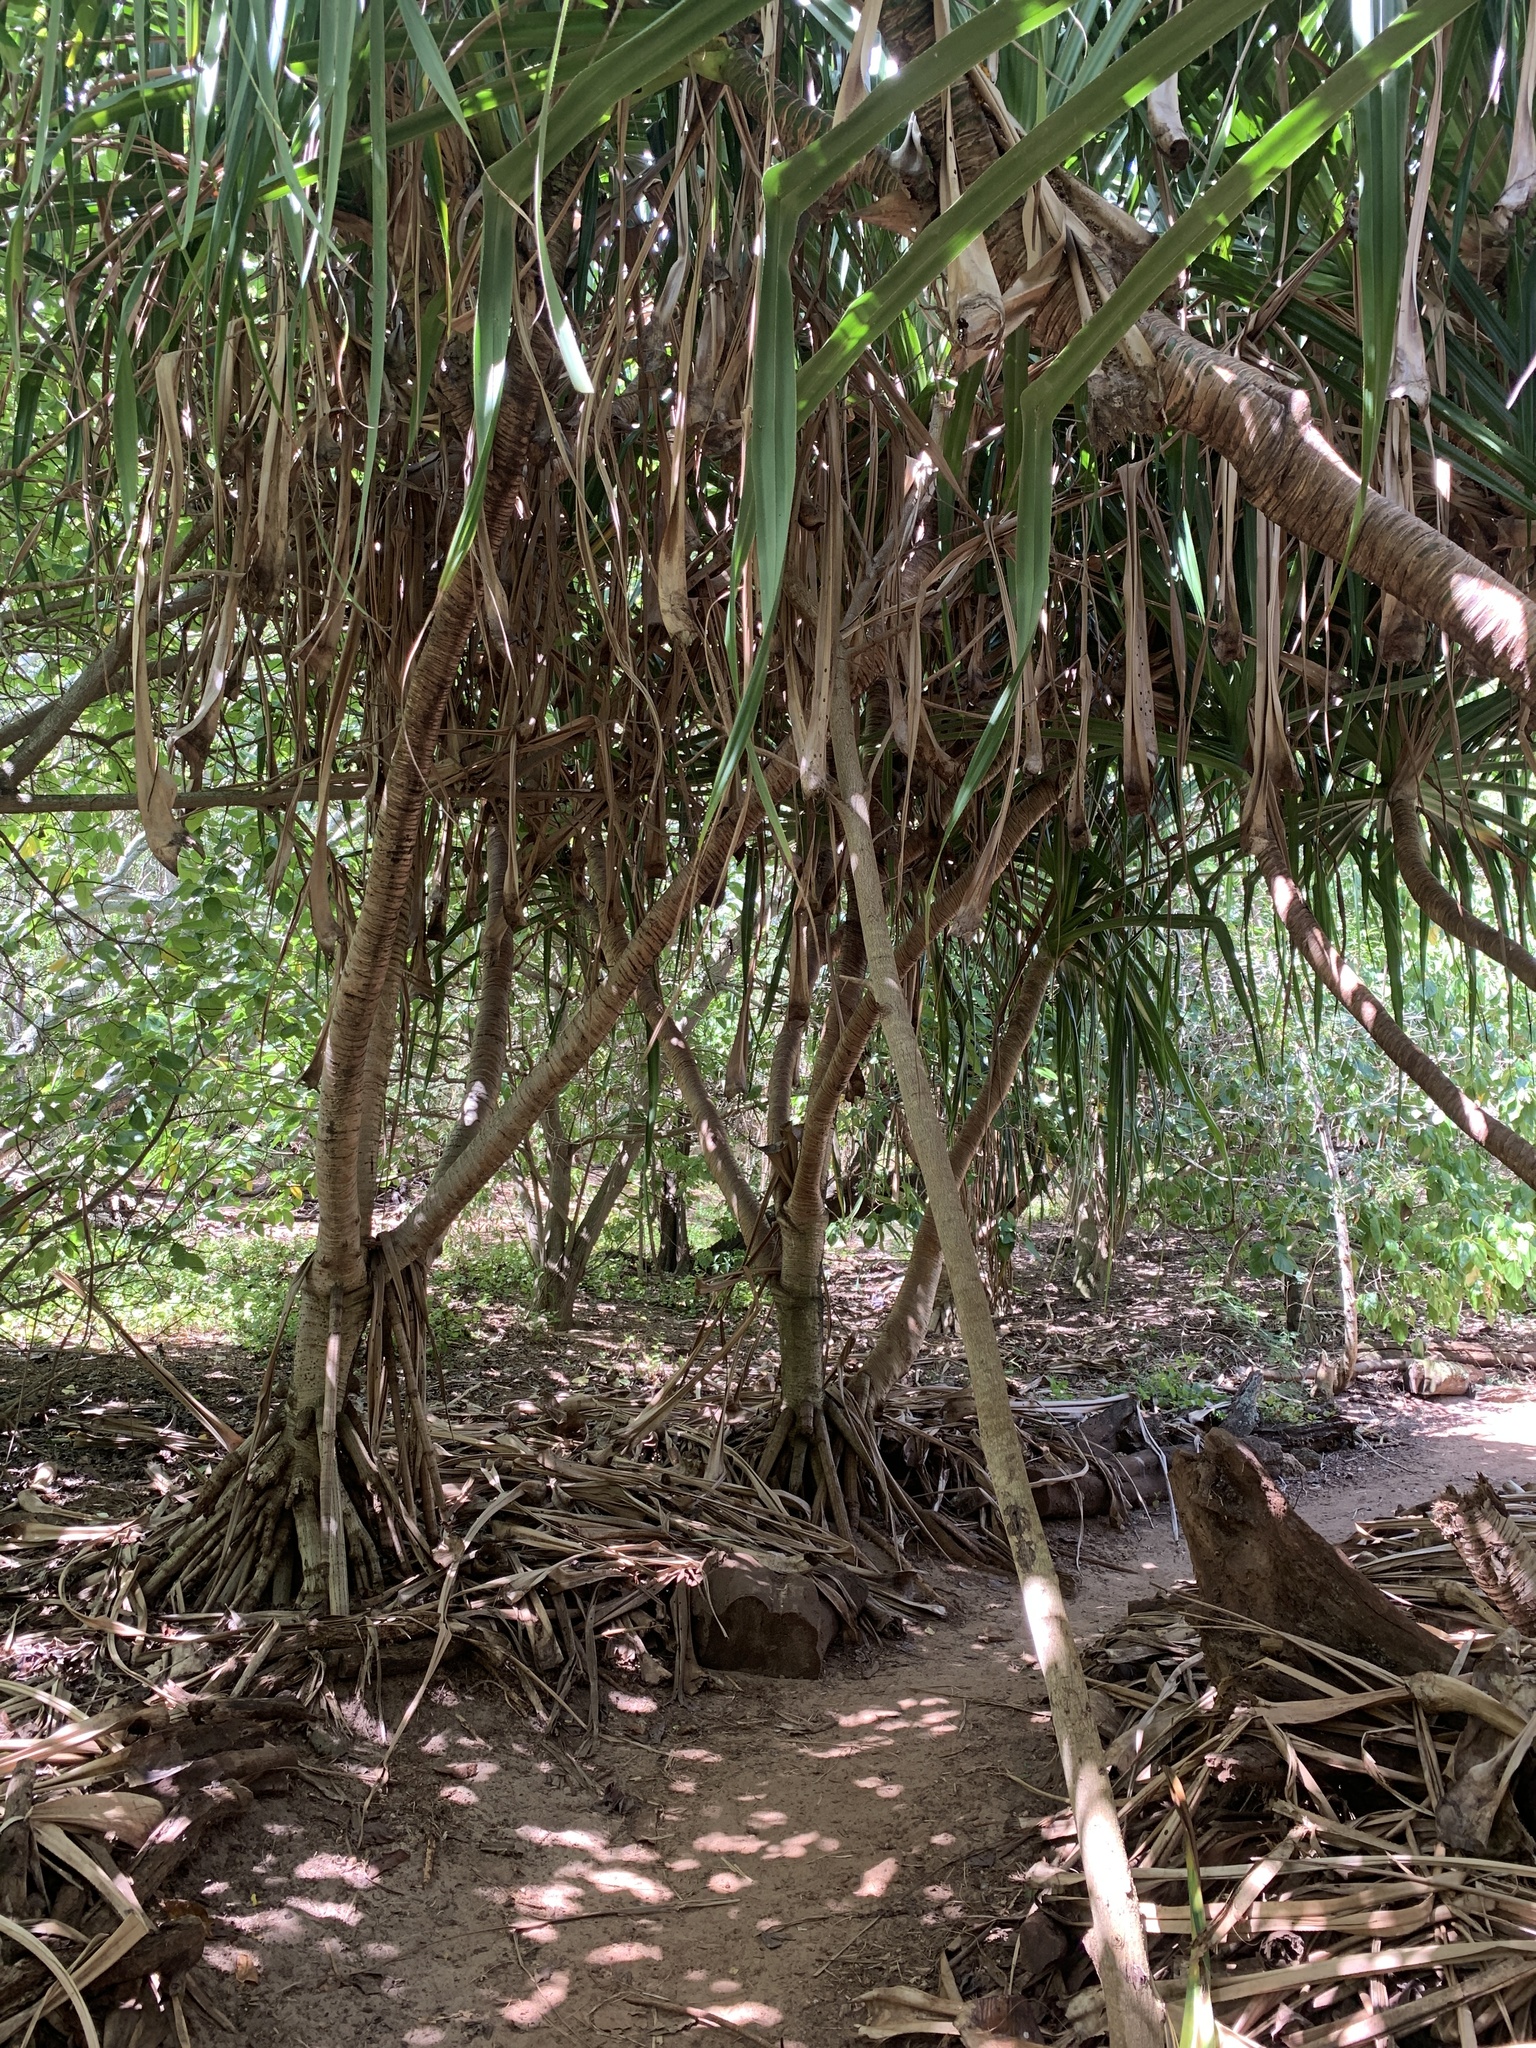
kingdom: Plantae
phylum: Tracheophyta
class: Liliopsida
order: Pandanales
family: Pandanaceae
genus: Pandanus
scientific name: Pandanus tectorius
